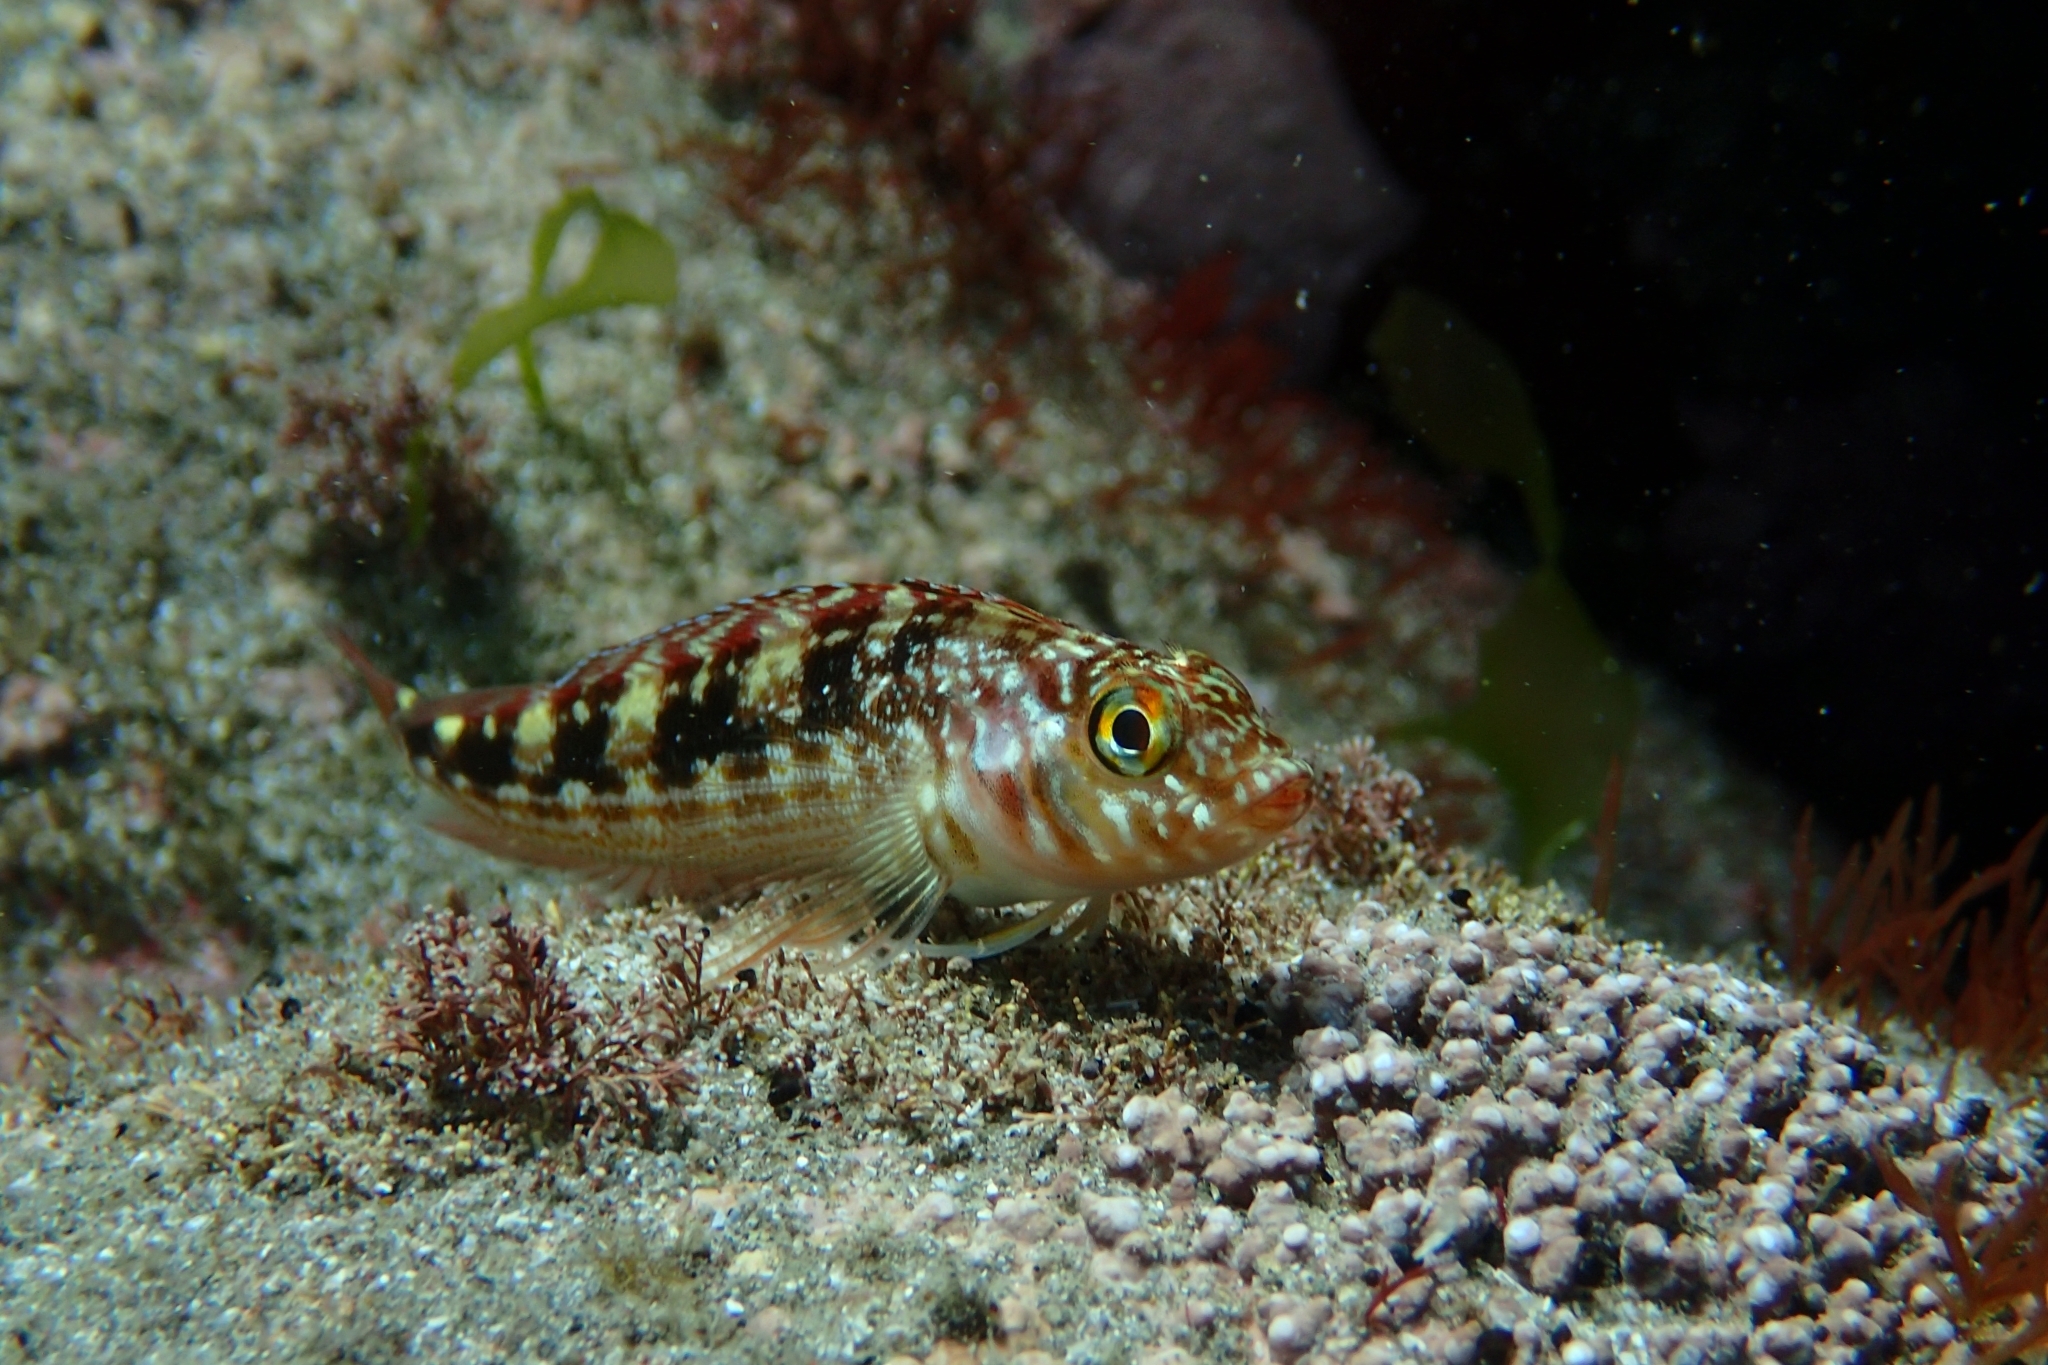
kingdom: Animalia
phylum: Chordata
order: Perciformes
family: Tripterygiidae
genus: Forsterygion
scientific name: Forsterygion varium
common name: Variable triplefin
